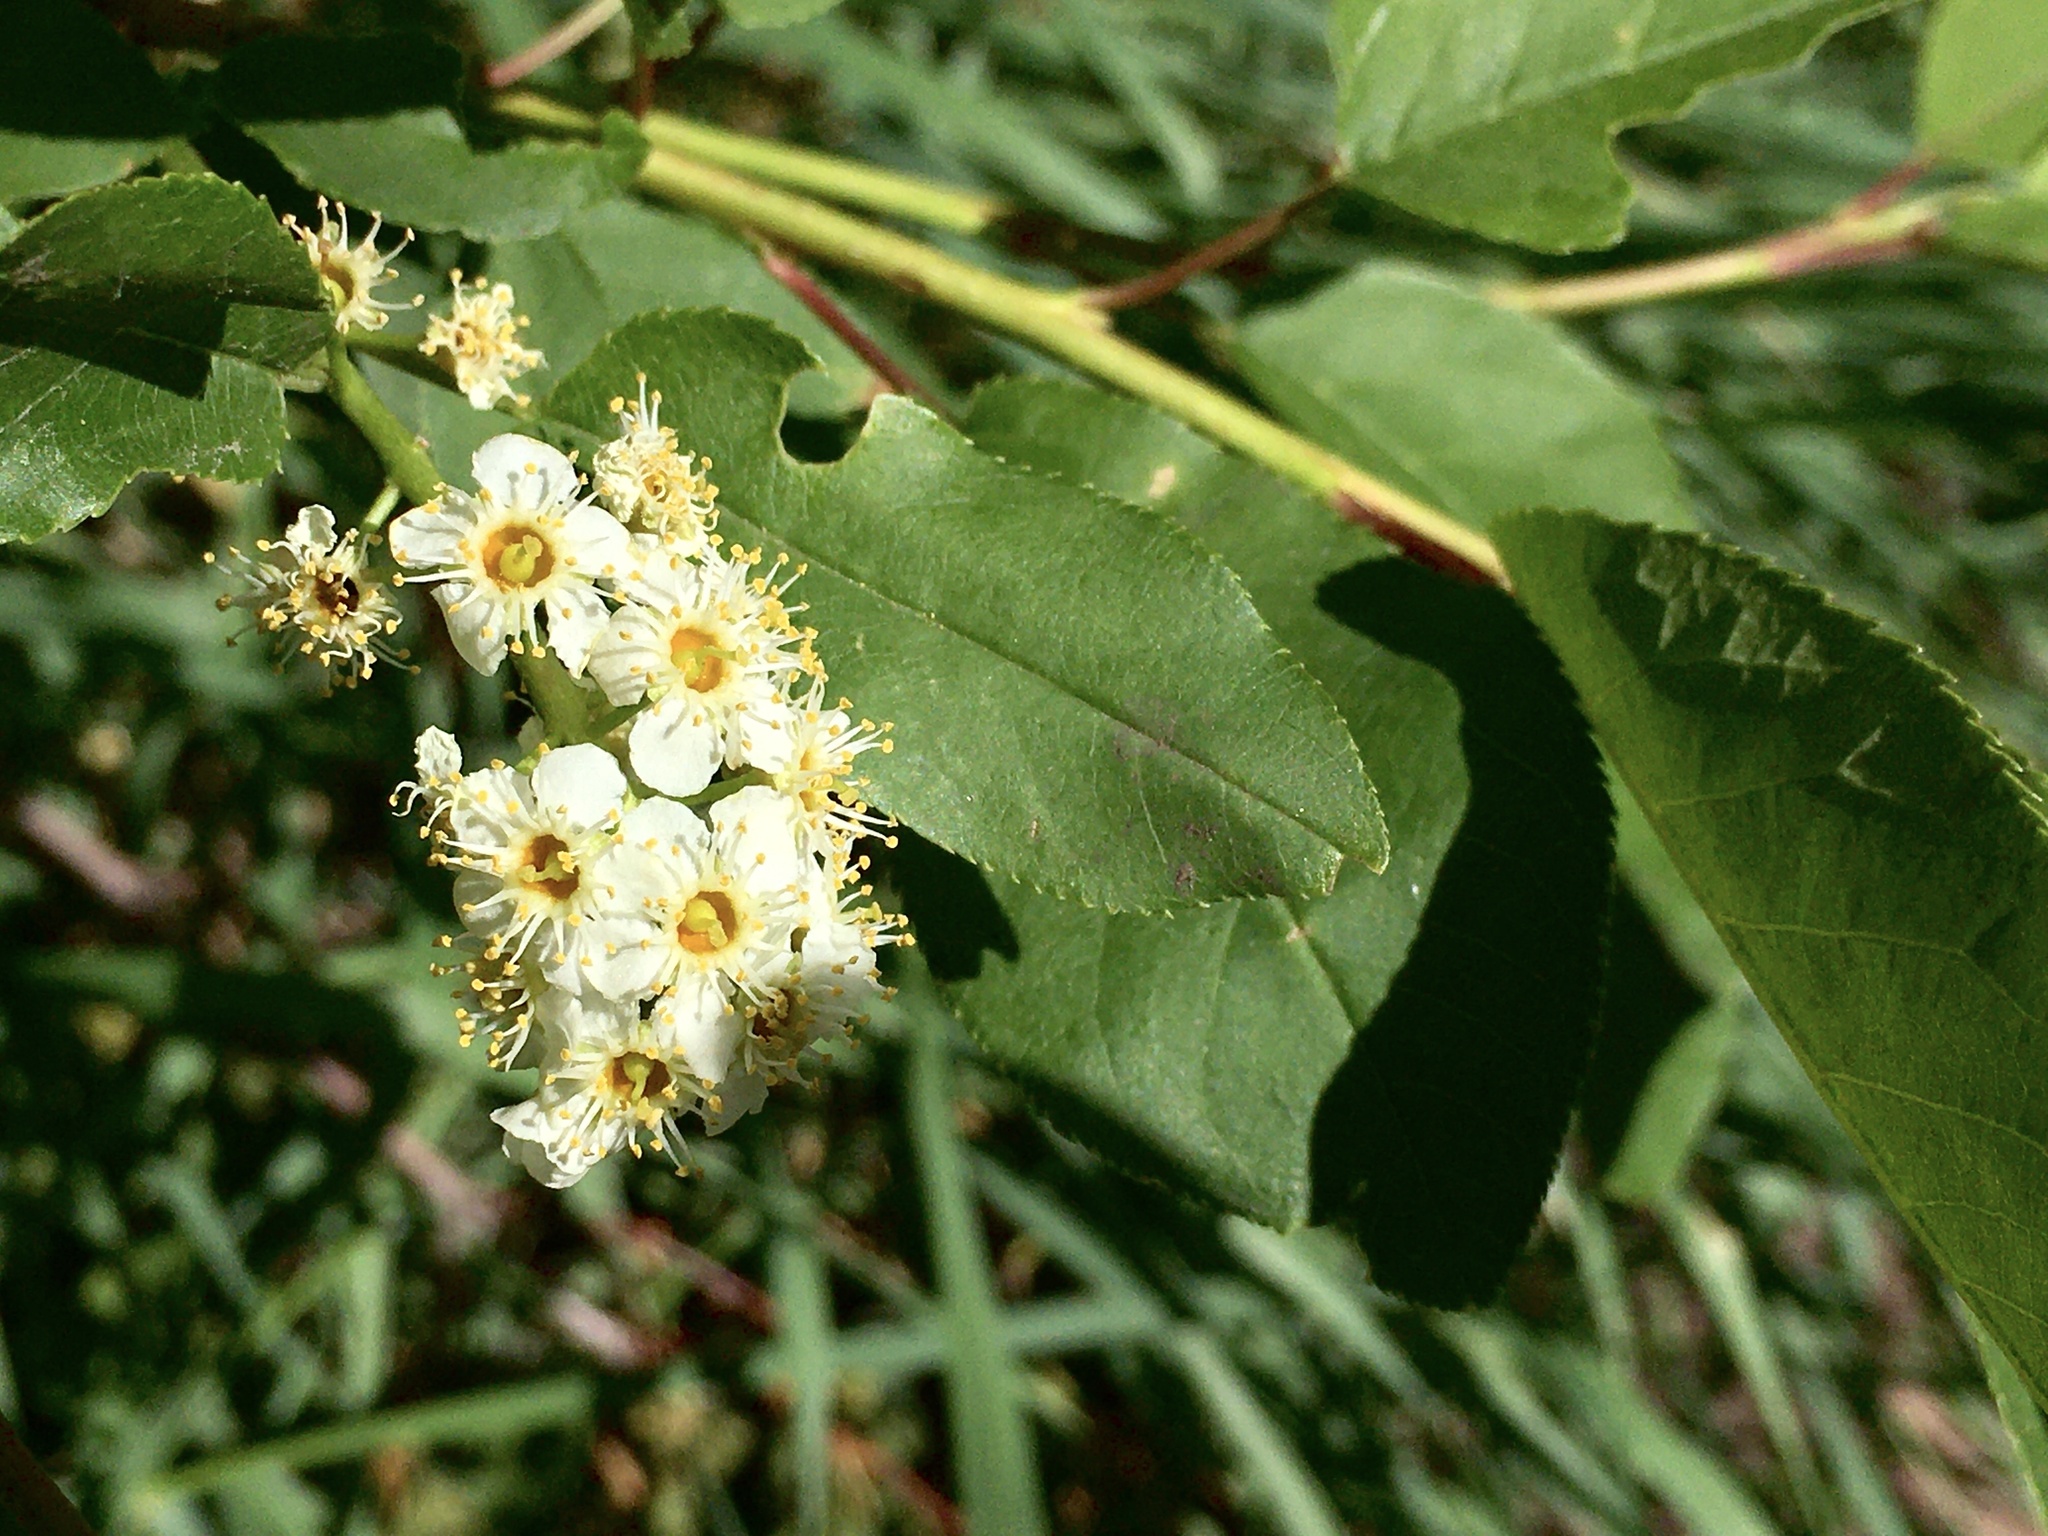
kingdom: Plantae
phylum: Tracheophyta
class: Magnoliopsida
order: Rosales
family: Rosaceae
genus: Prunus
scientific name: Prunus virginiana
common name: Chokecherry
